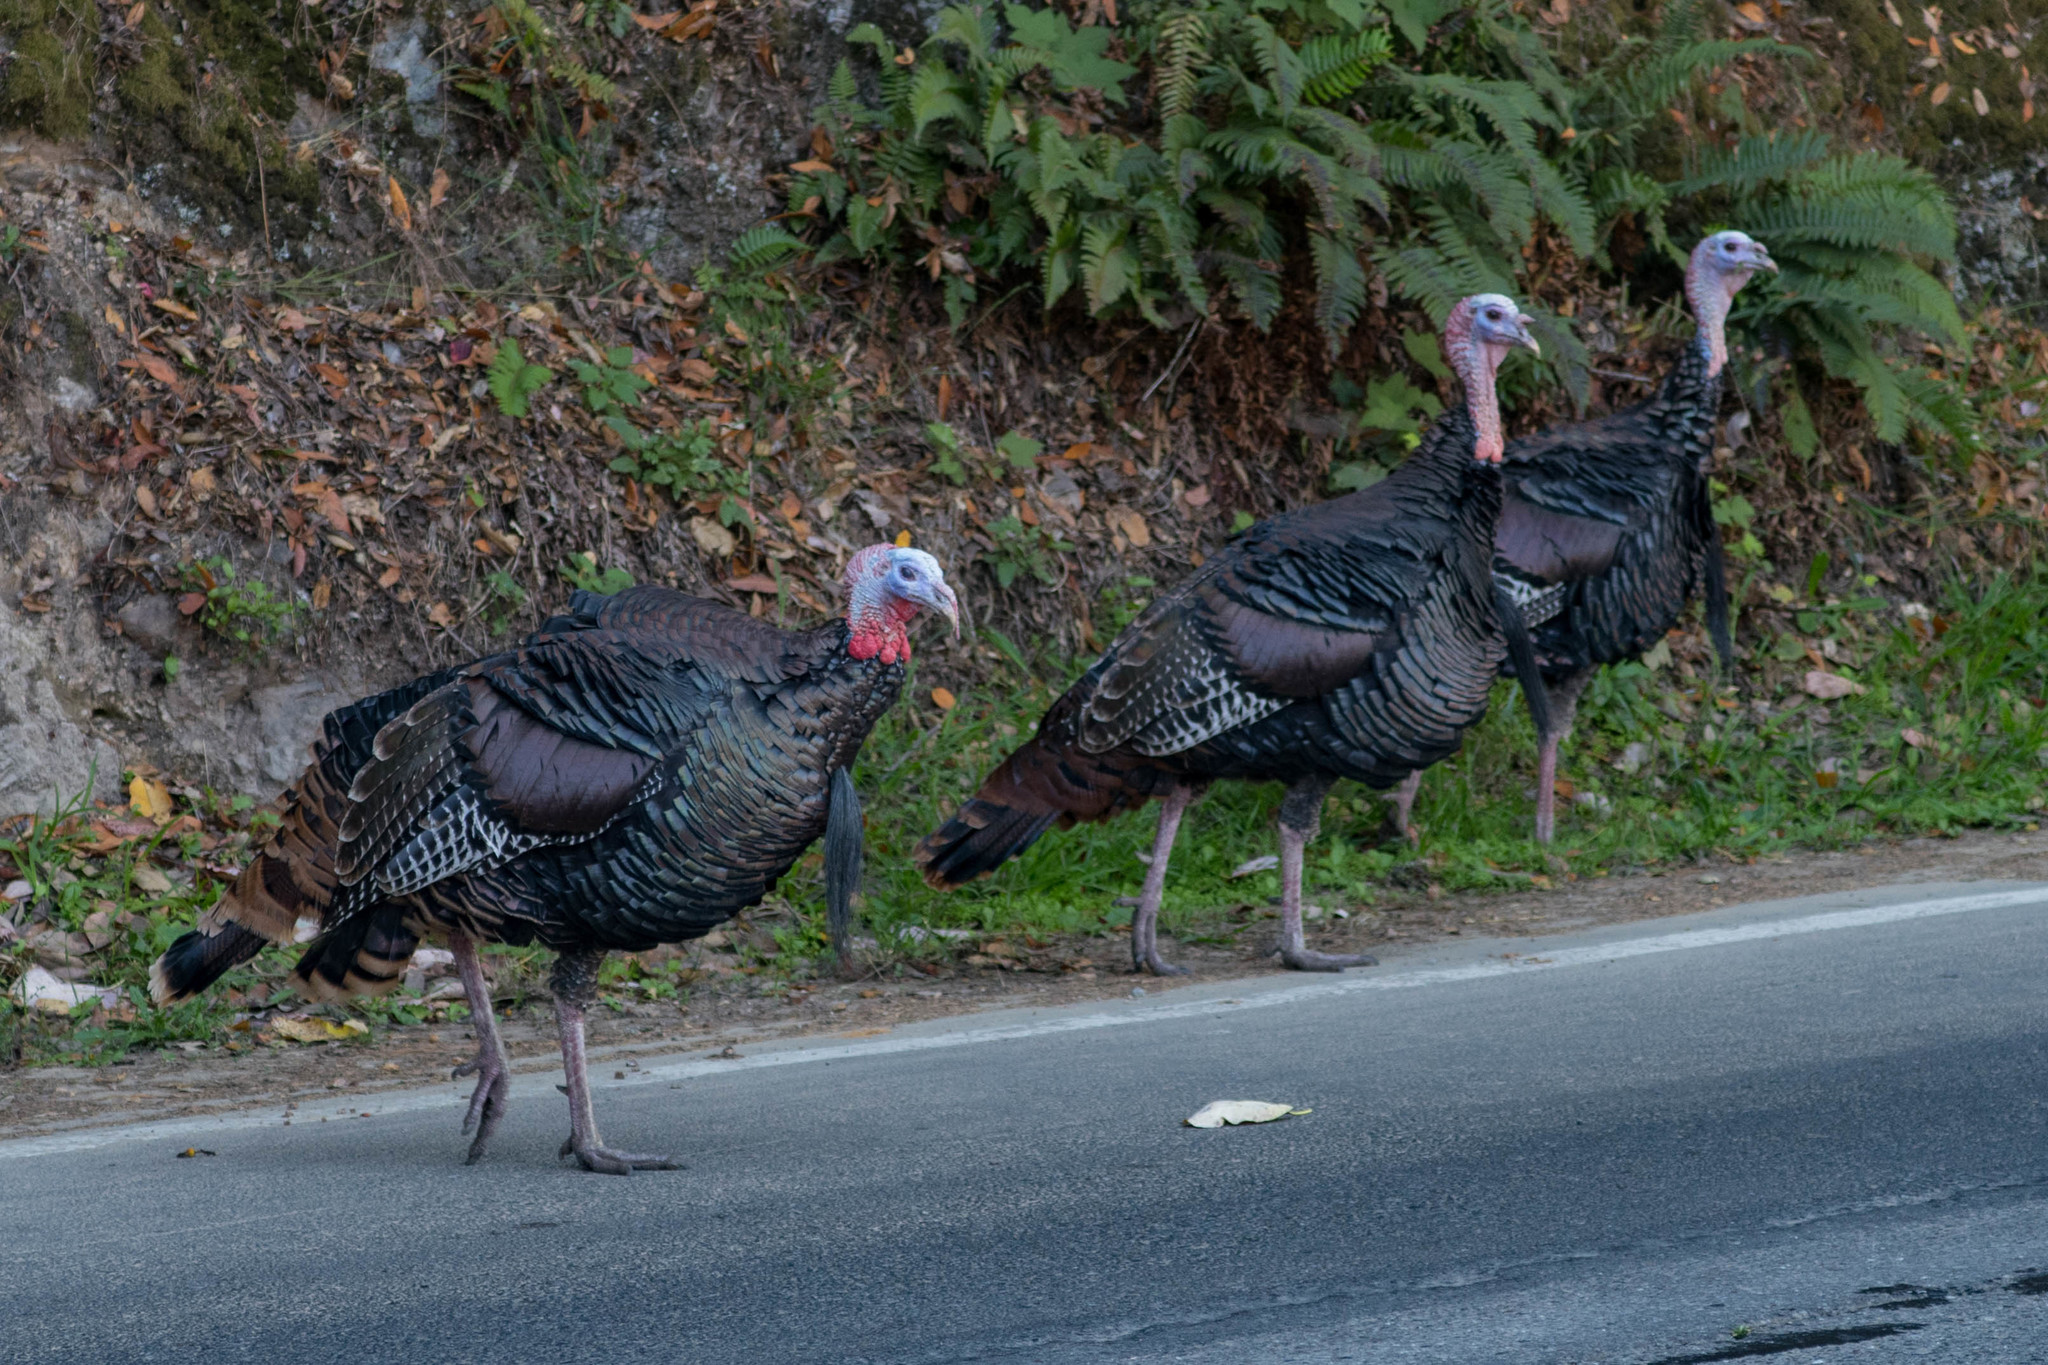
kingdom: Animalia
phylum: Chordata
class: Aves
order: Galliformes
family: Phasianidae
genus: Meleagris
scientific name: Meleagris gallopavo
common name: Wild turkey
